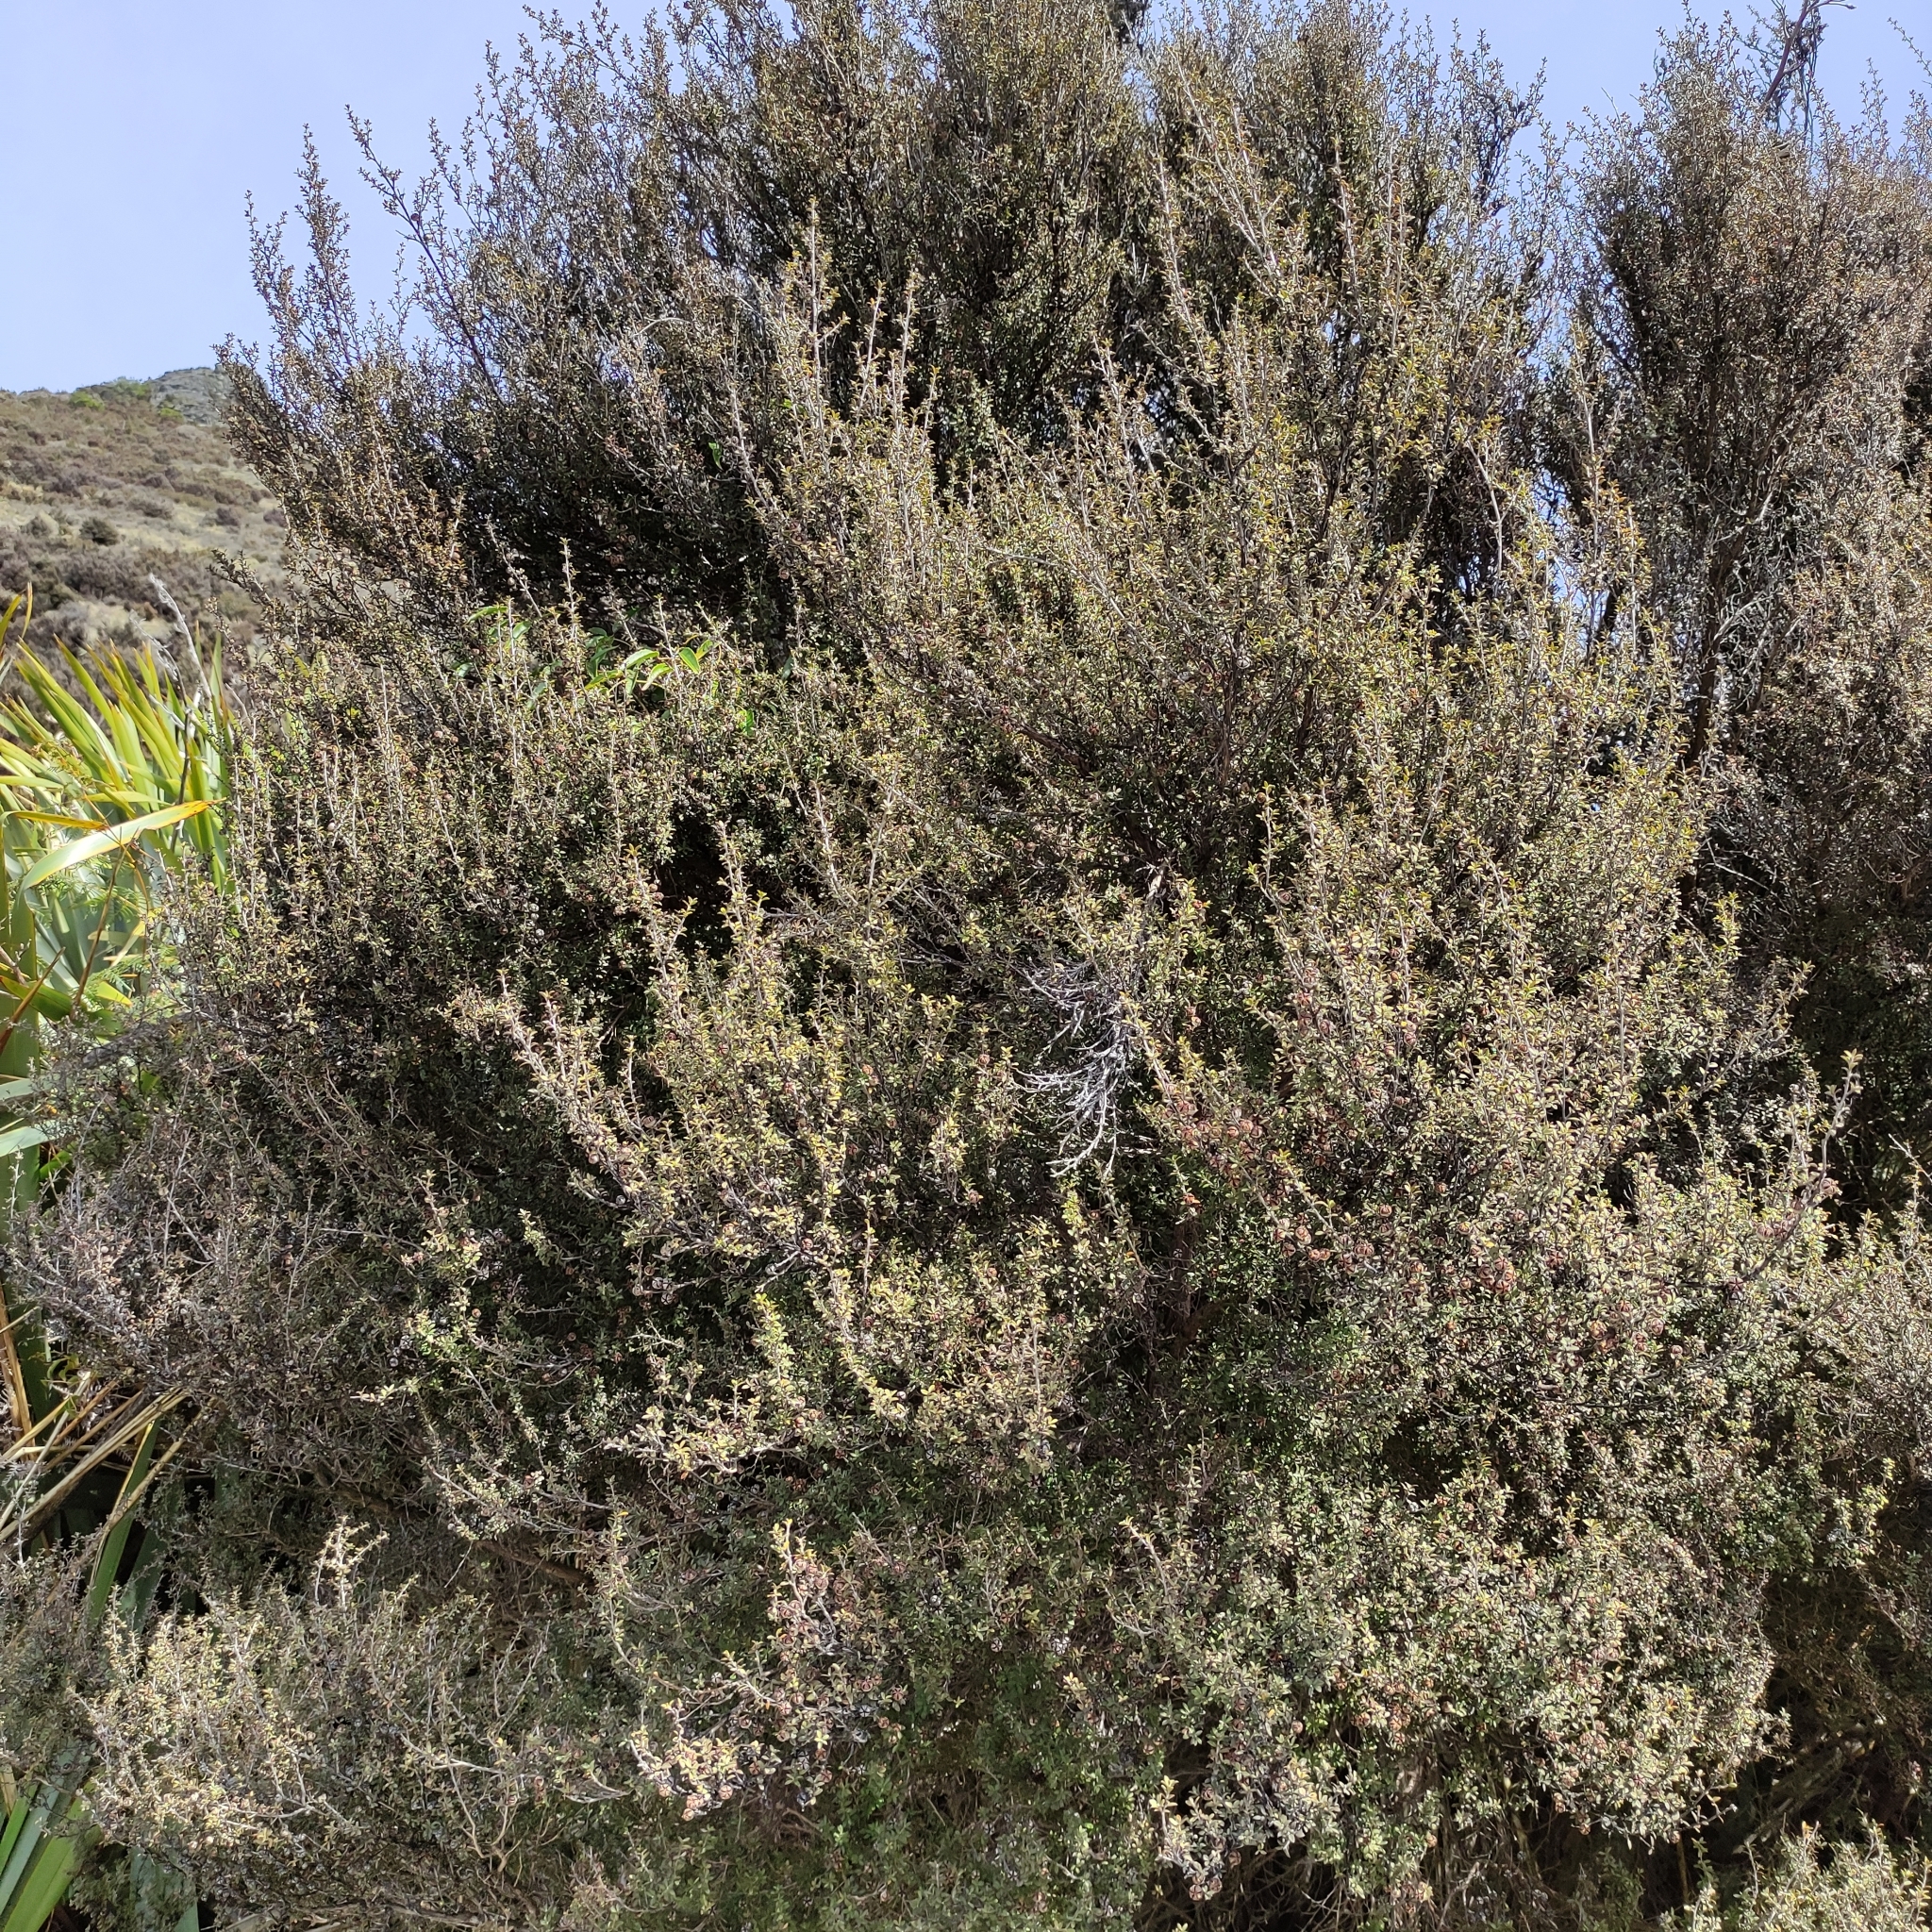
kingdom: Plantae
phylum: Tracheophyta
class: Magnoliopsida
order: Myrtales
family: Myrtaceae
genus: Leptospermum
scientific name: Leptospermum scoparium
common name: Broom tea-tree
